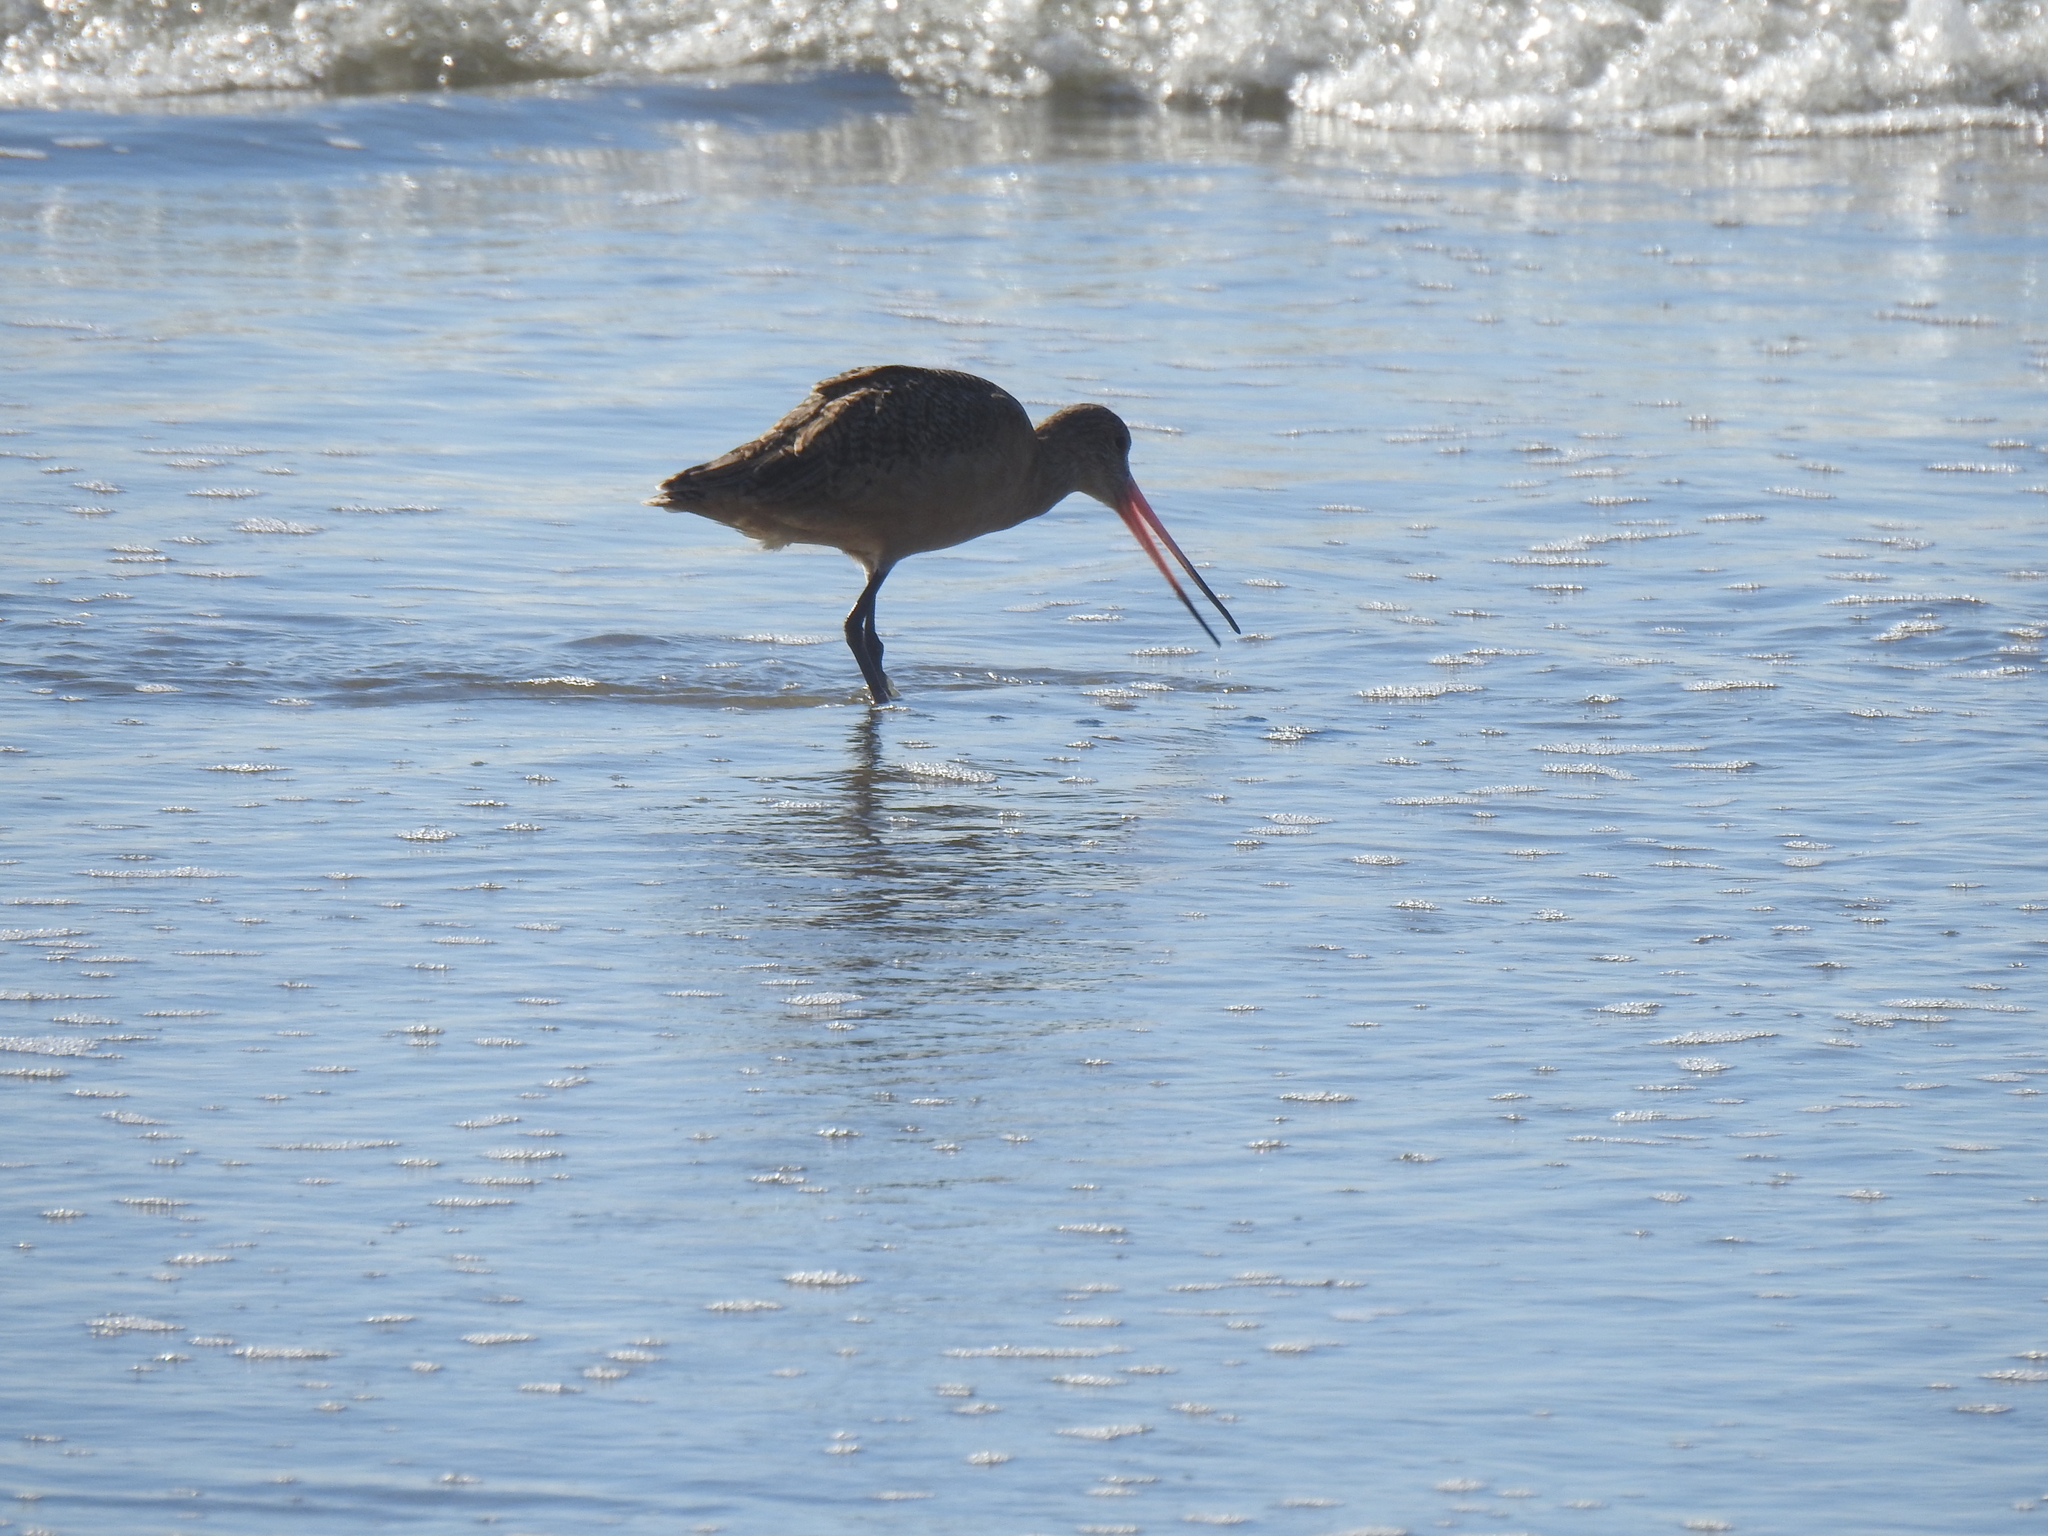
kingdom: Animalia
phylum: Chordata
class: Aves
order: Charadriiformes
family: Scolopacidae
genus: Limosa
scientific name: Limosa fedoa
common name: Marbled godwit
